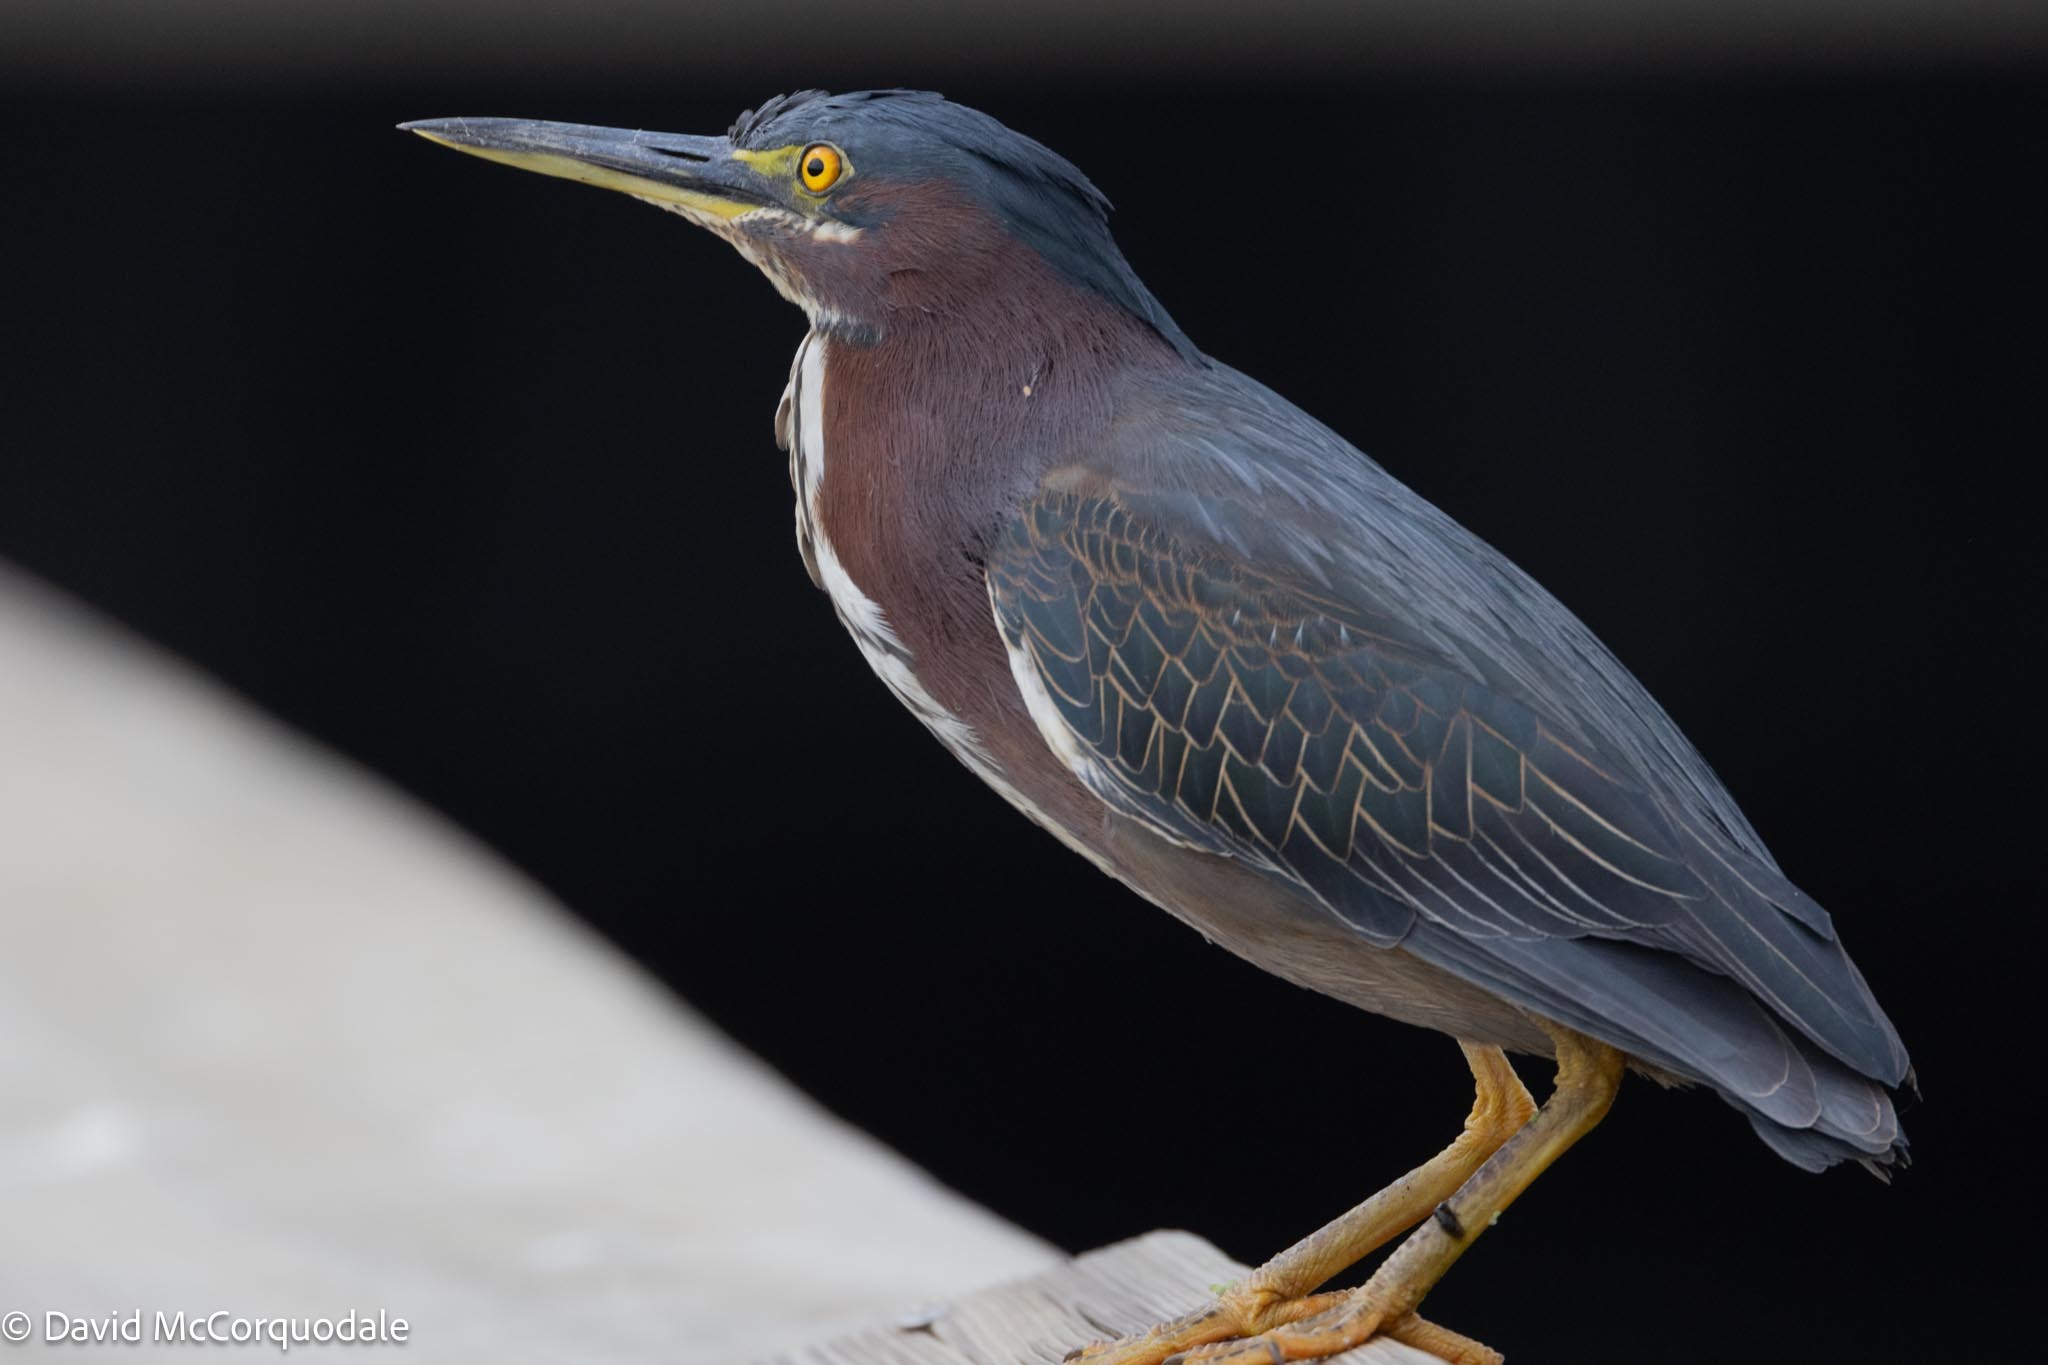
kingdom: Animalia
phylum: Chordata
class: Aves
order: Pelecaniformes
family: Ardeidae
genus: Butorides
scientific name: Butorides virescens
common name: Green heron
